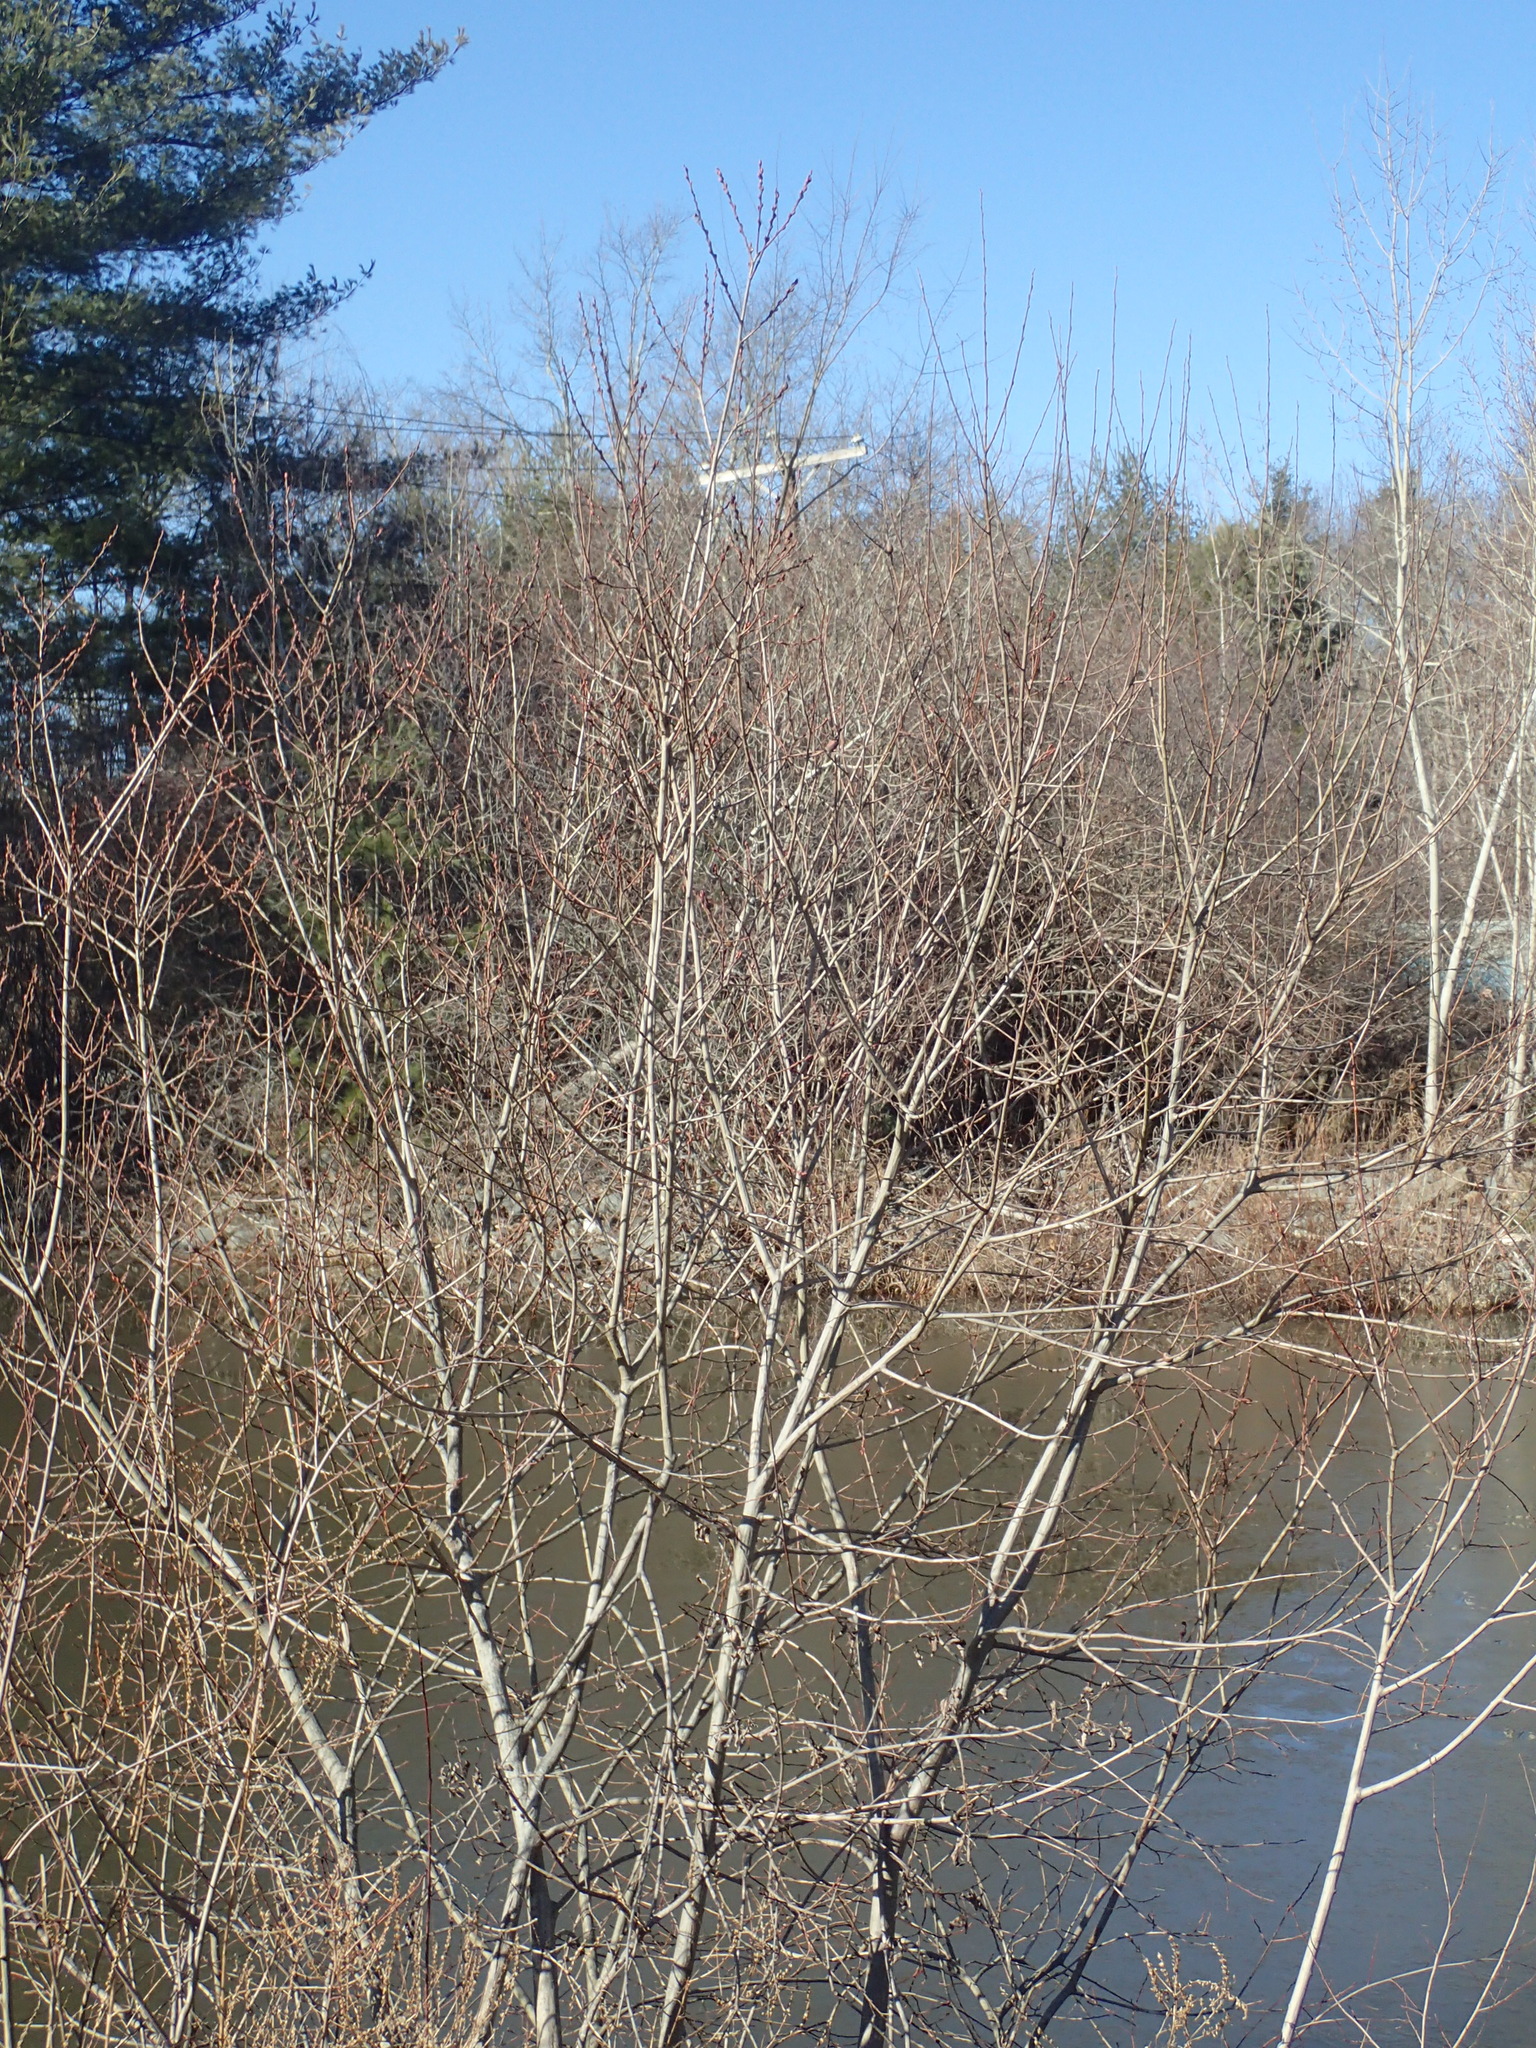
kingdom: Plantae
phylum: Tracheophyta
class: Magnoliopsida
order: Malpighiales
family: Salicaceae
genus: Salix
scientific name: Salix atrocinerea
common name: Rusty willow
